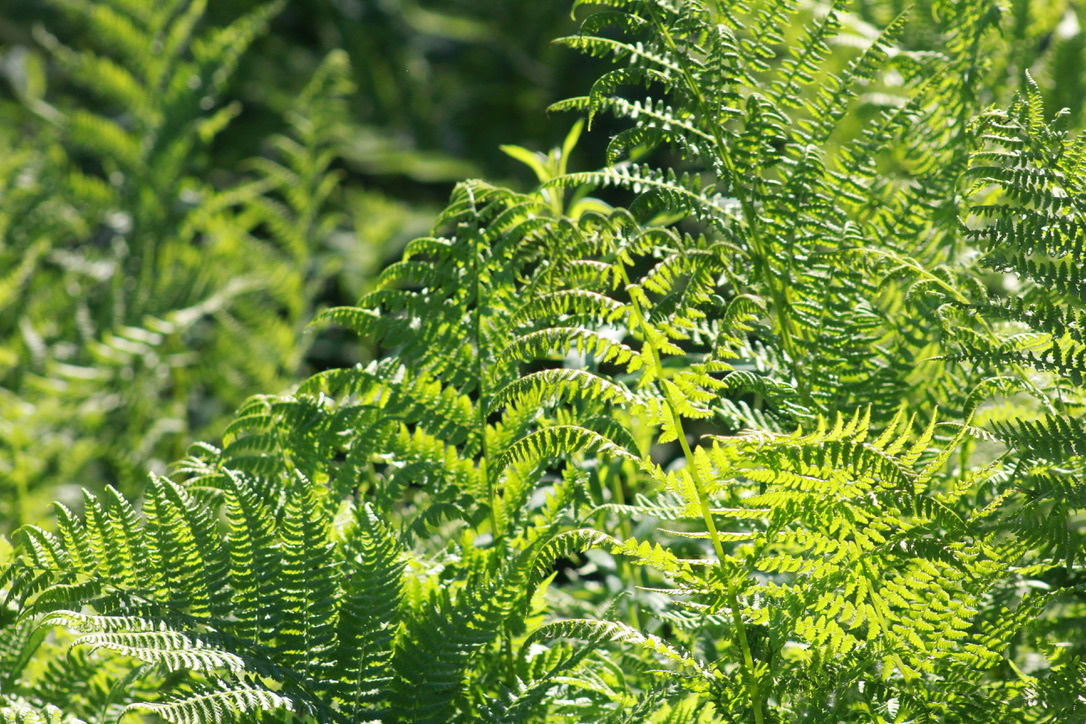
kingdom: Plantae
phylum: Tracheophyta
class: Polypodiopsida
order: Polypodiales
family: Athyriaceae
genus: Athyrium
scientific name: Athyrium filix-femina
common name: Lady fern
